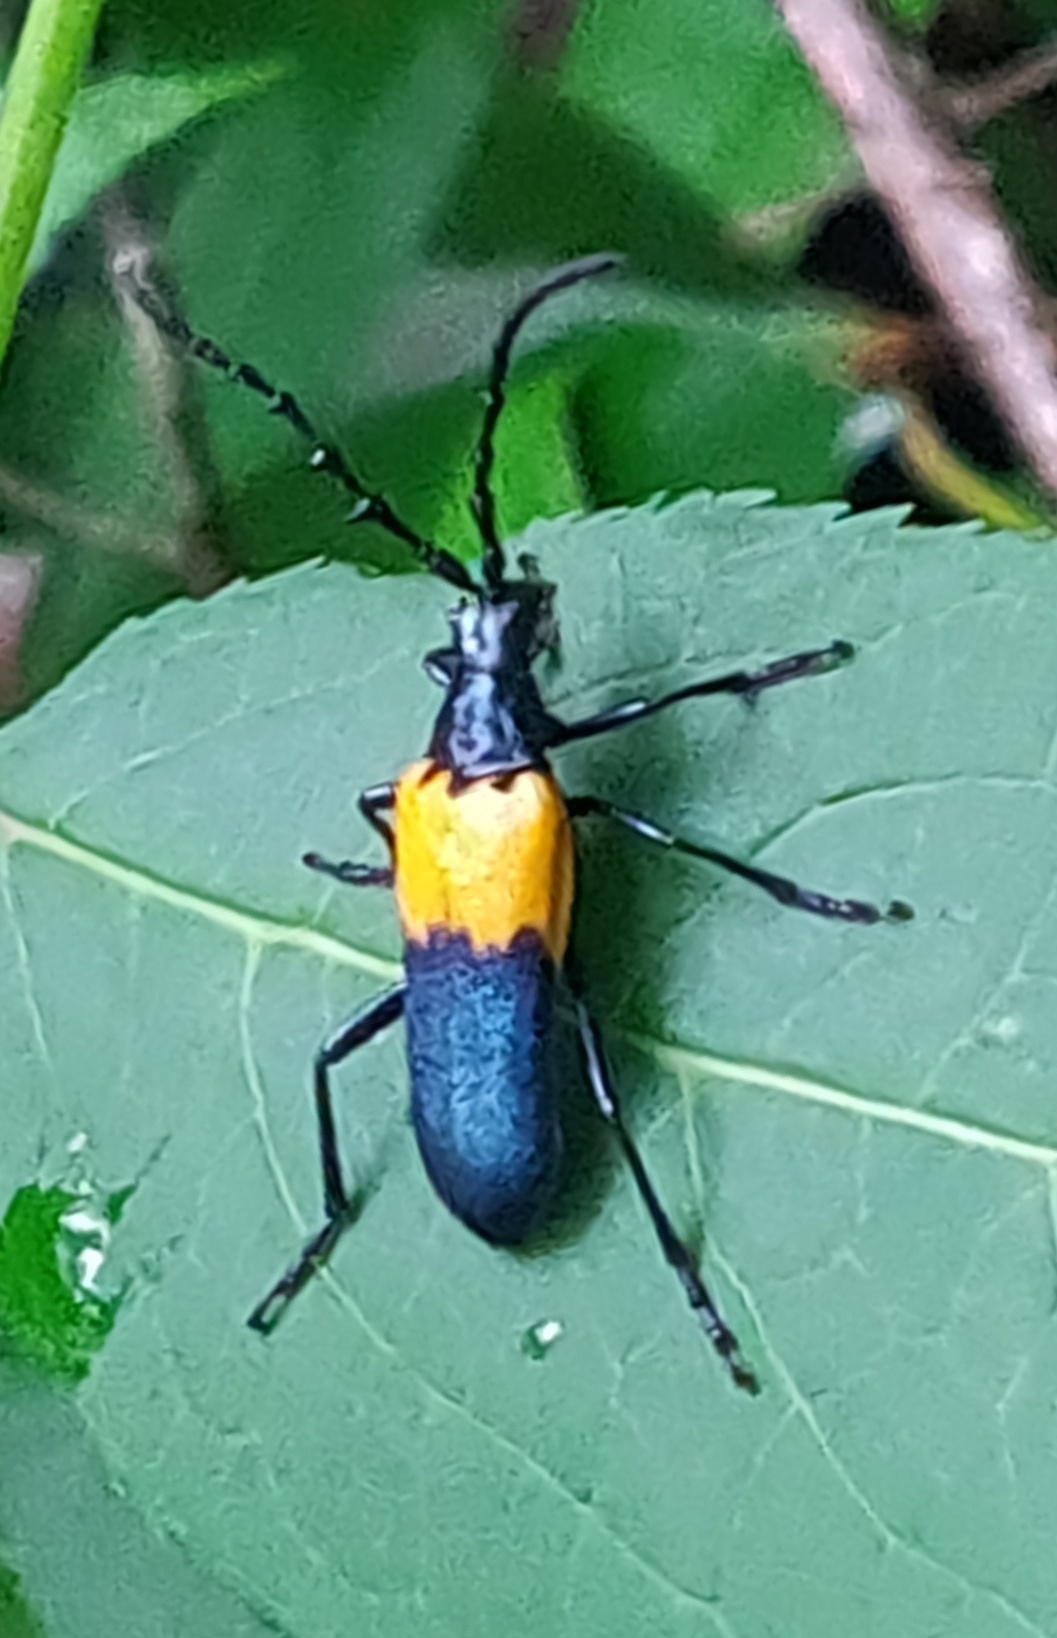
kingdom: Animalia
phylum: Arthropoda
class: Insecta
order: Coleoptera
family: Cerambycidae
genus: Desmocerus
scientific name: Desmocerus palliatus
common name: Eastern elderberry borer
